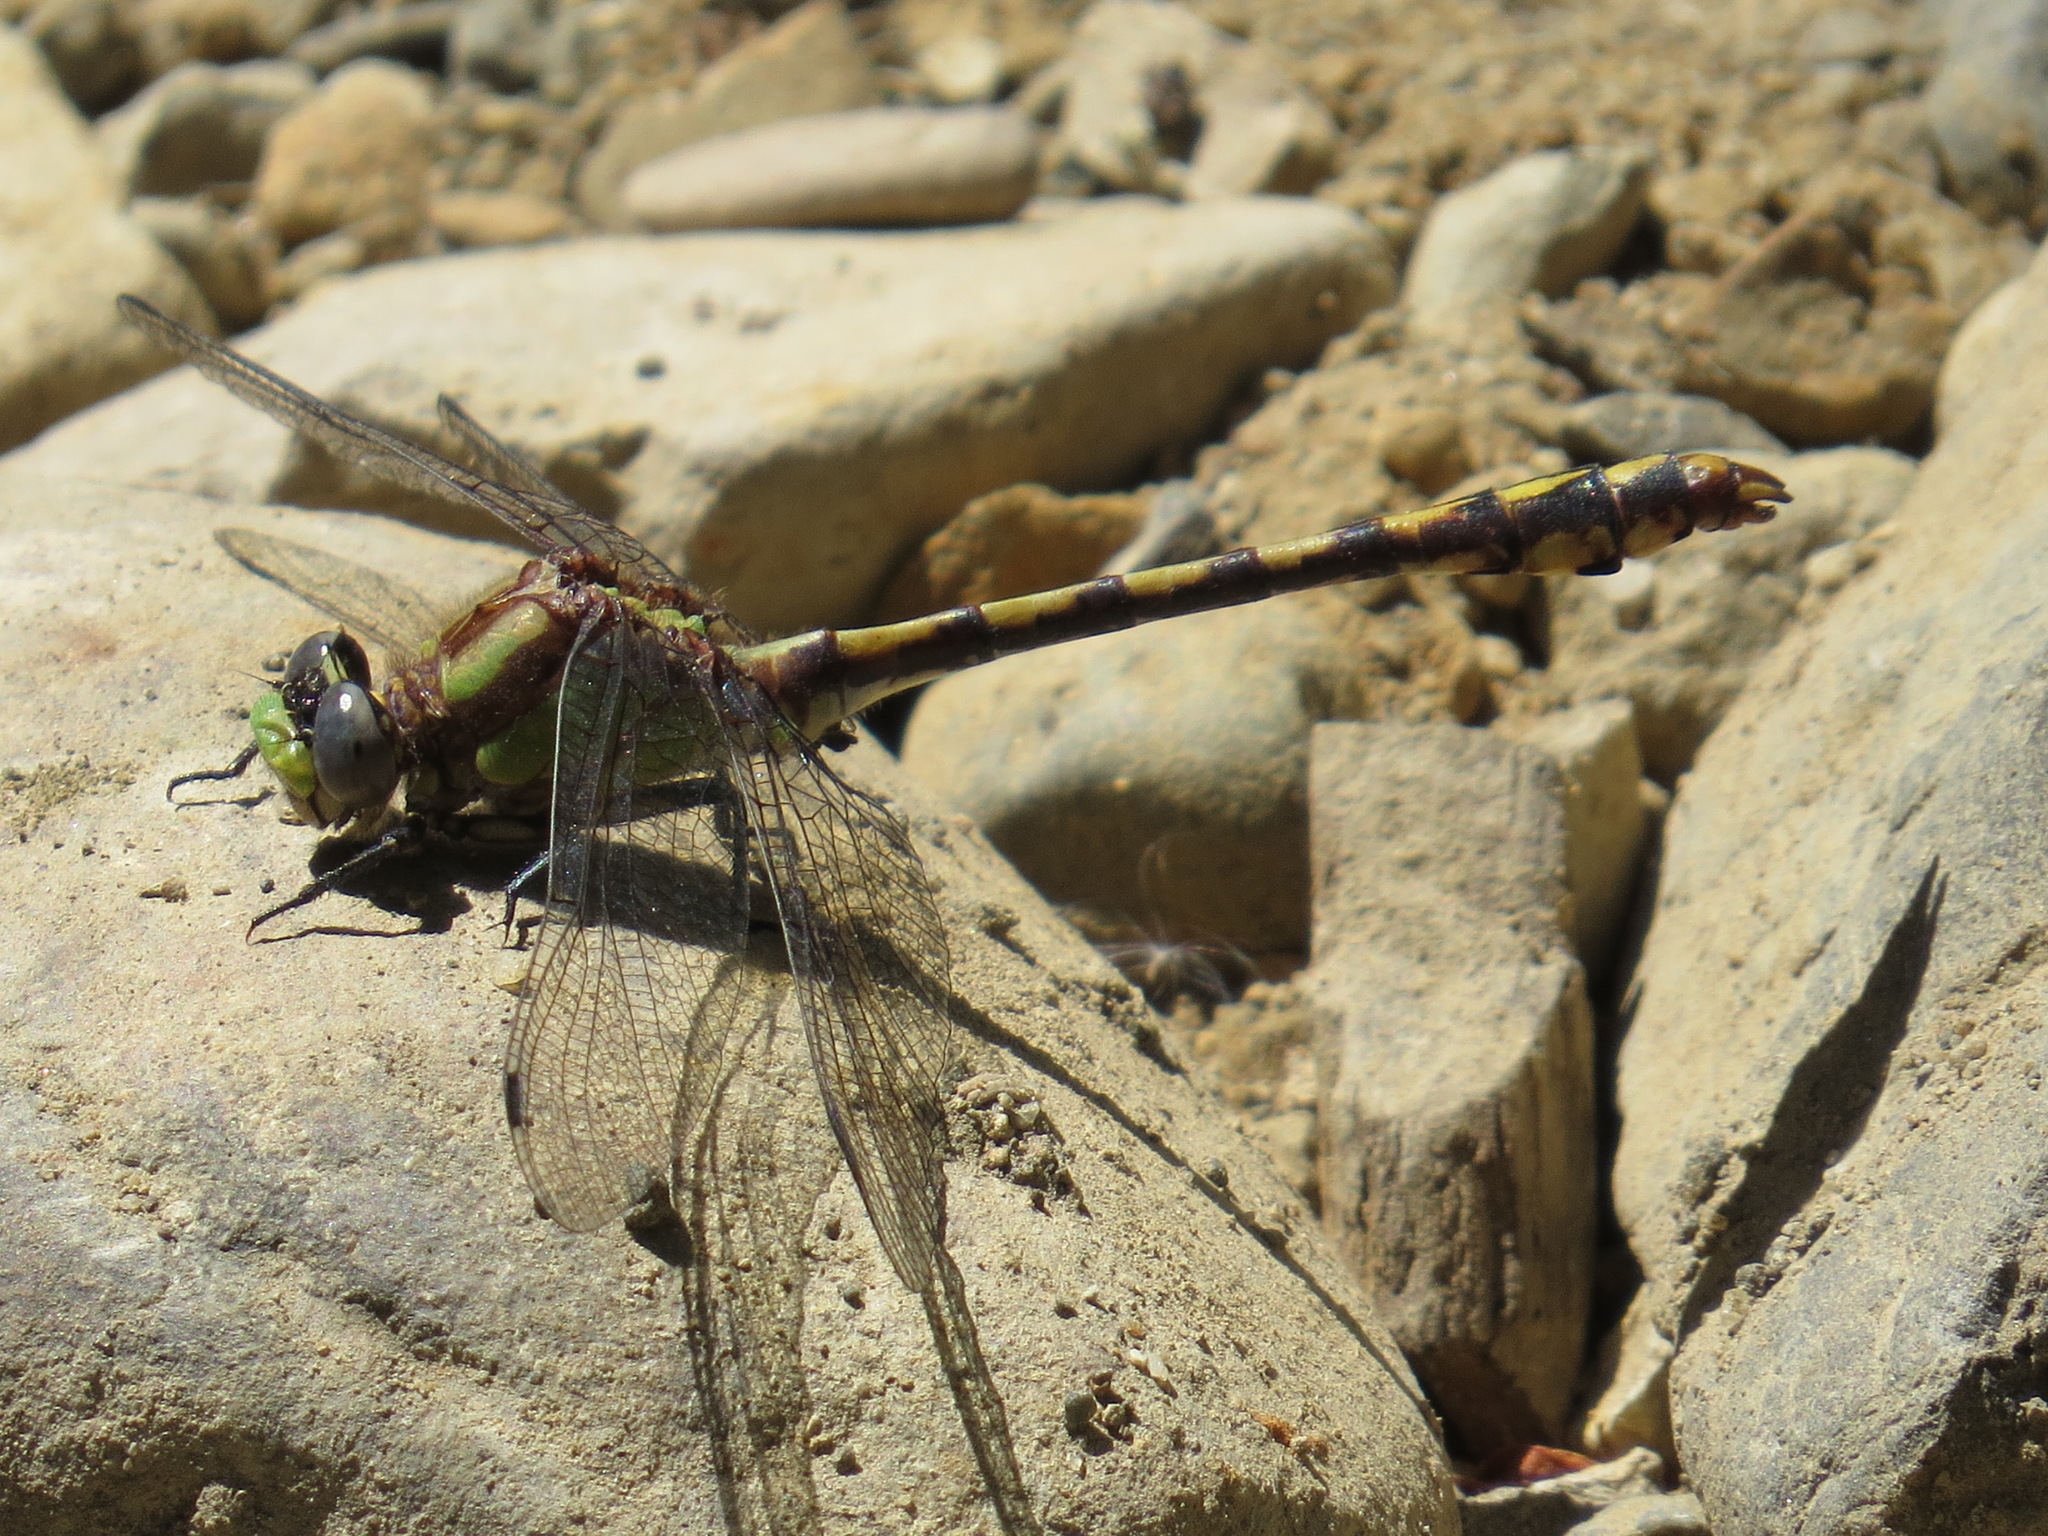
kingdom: Animalia
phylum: Arthropoda
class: Insecta
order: Odonata
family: Gomphidae
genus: Ophiogomphus
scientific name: Ophiogomphus bison
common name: Bison snaketail
